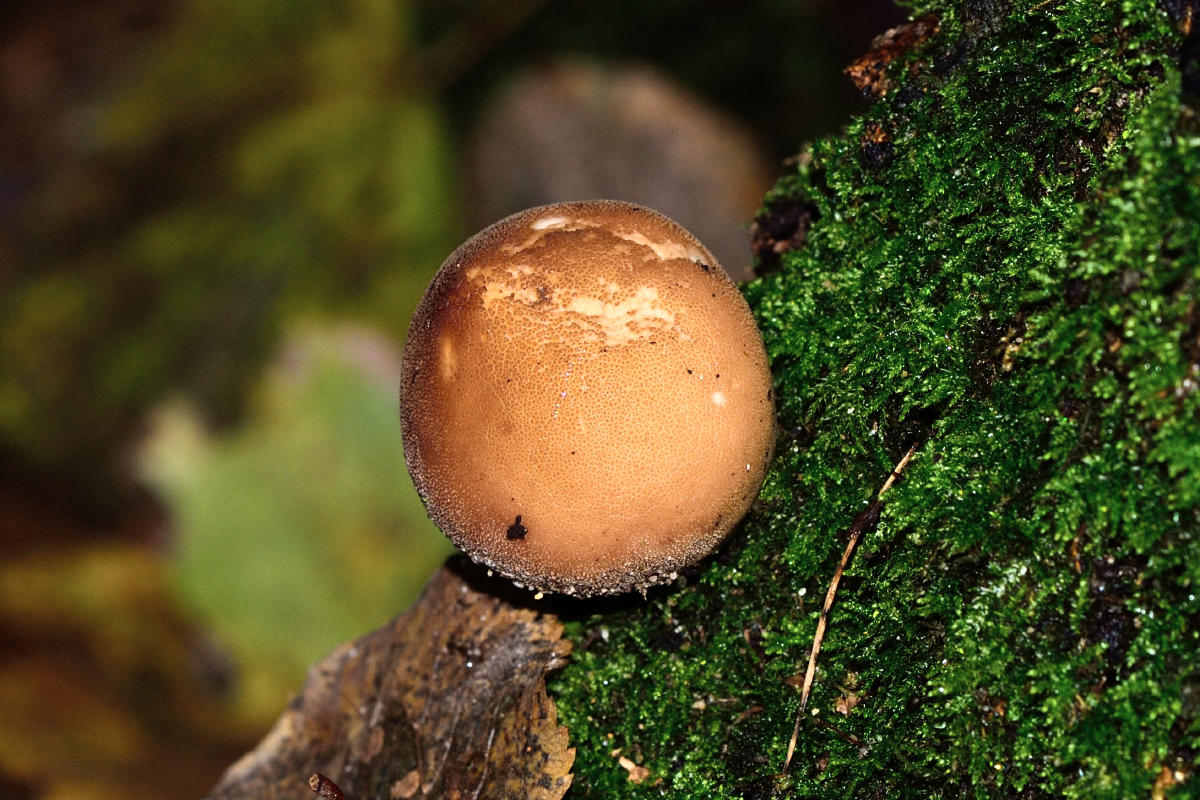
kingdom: Fungi
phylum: Basidiomycota
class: Agaricomycetes
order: Agaricales
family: Lycoperdaceae
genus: Apioperdon
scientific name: Apioperdon pyriforme
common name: Pear-shaped puffball
